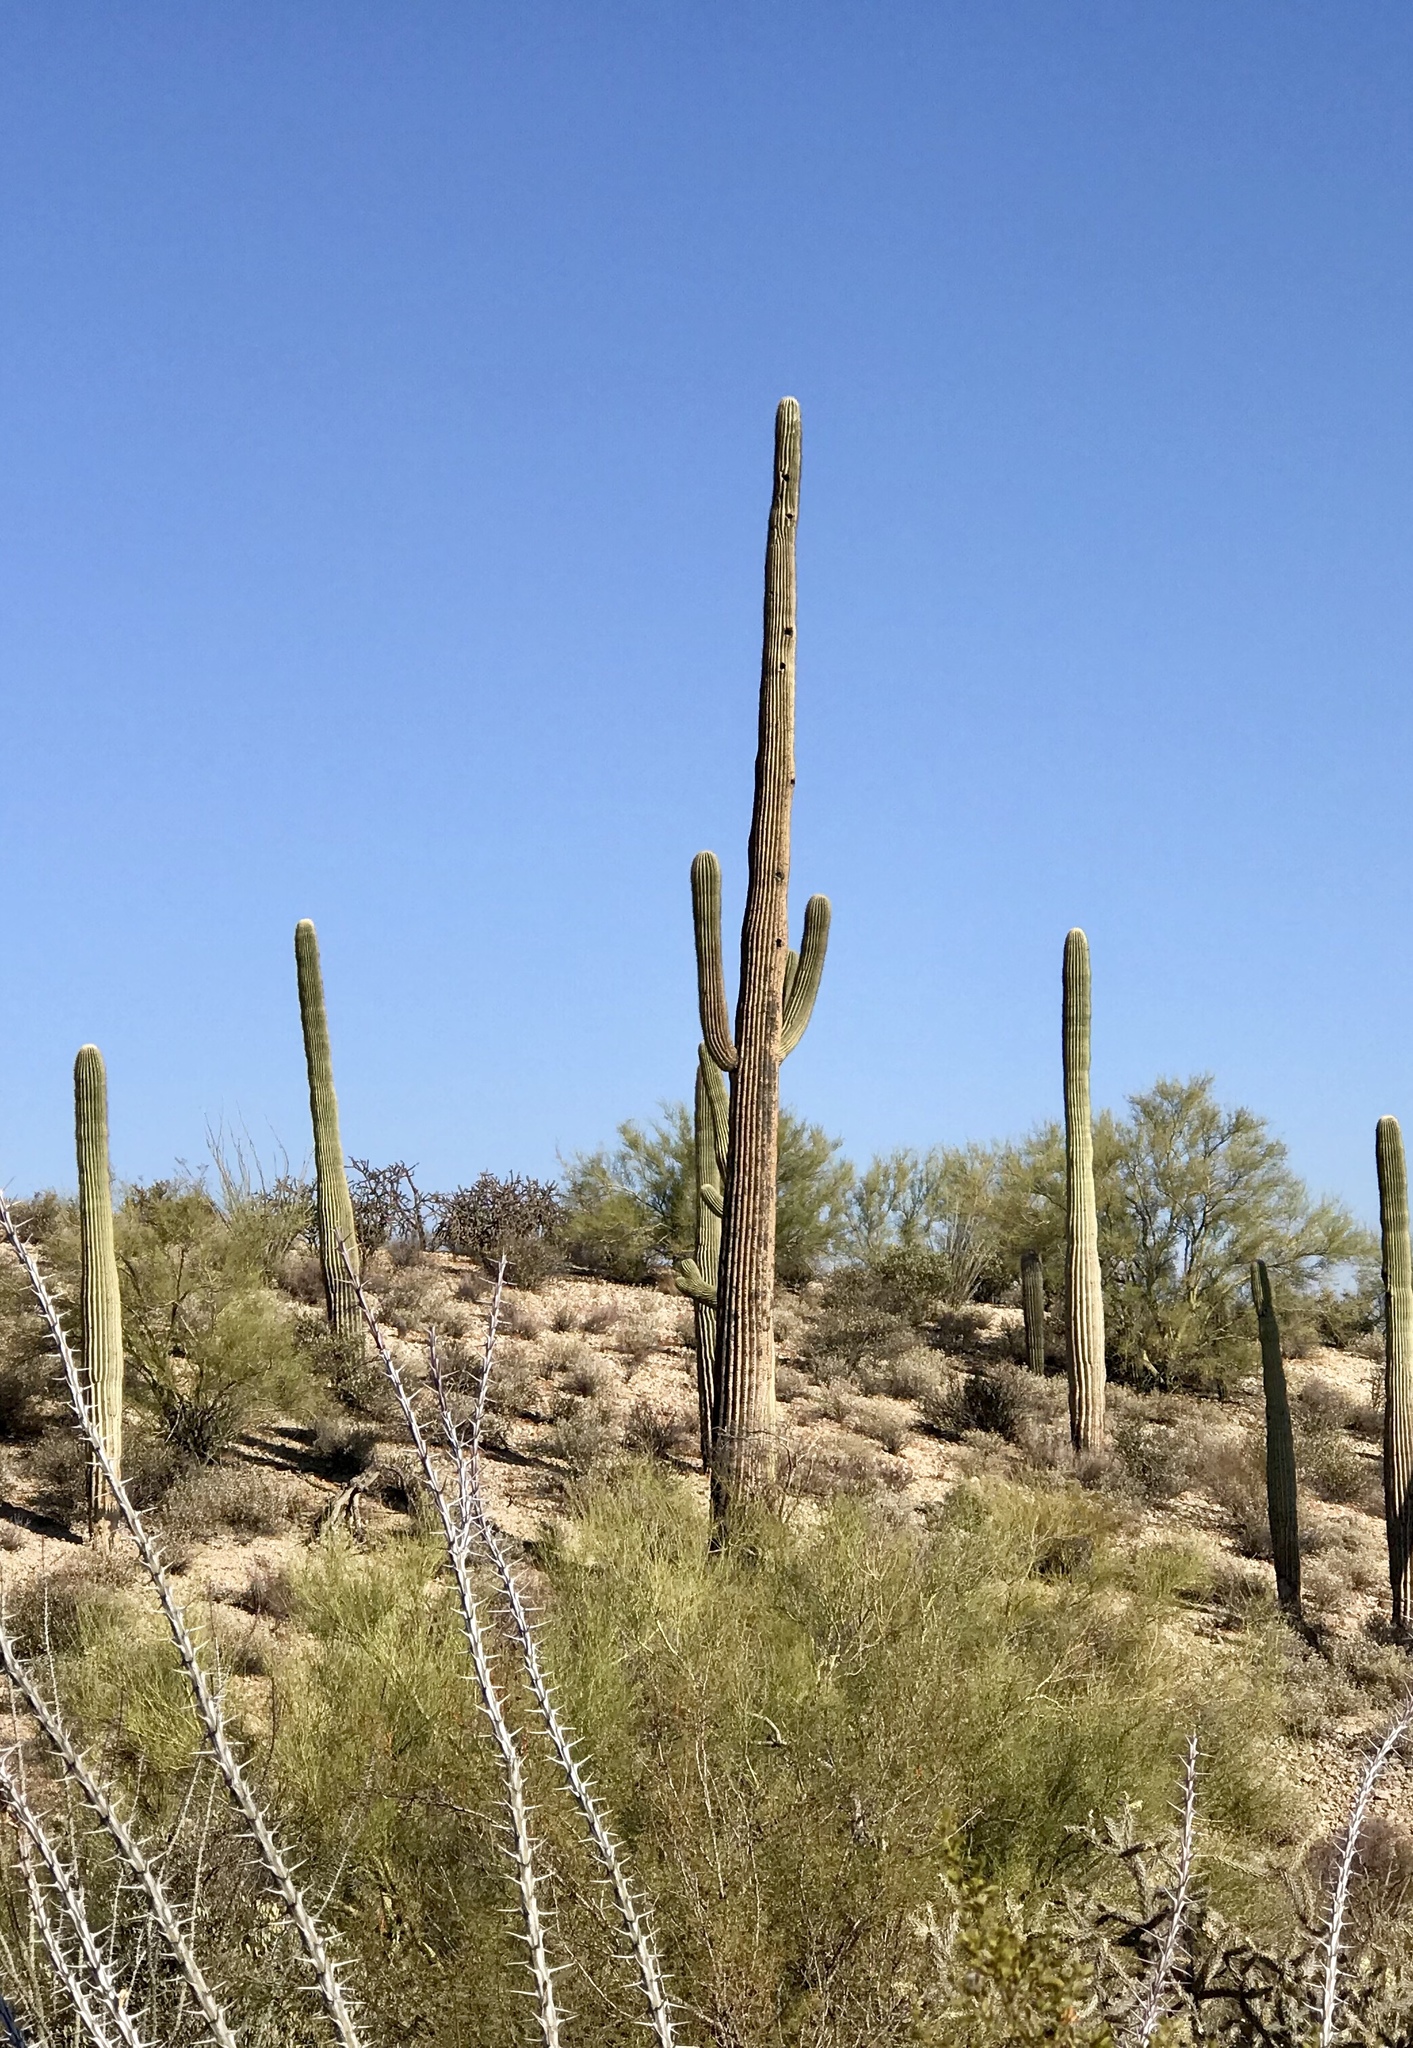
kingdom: Plantae
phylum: Tracheophyta
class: Magnoliopsida
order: Caryophyllales
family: Cactaceae
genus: Carnegiea
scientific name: Carnegiea gigantea
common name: Saguaro
